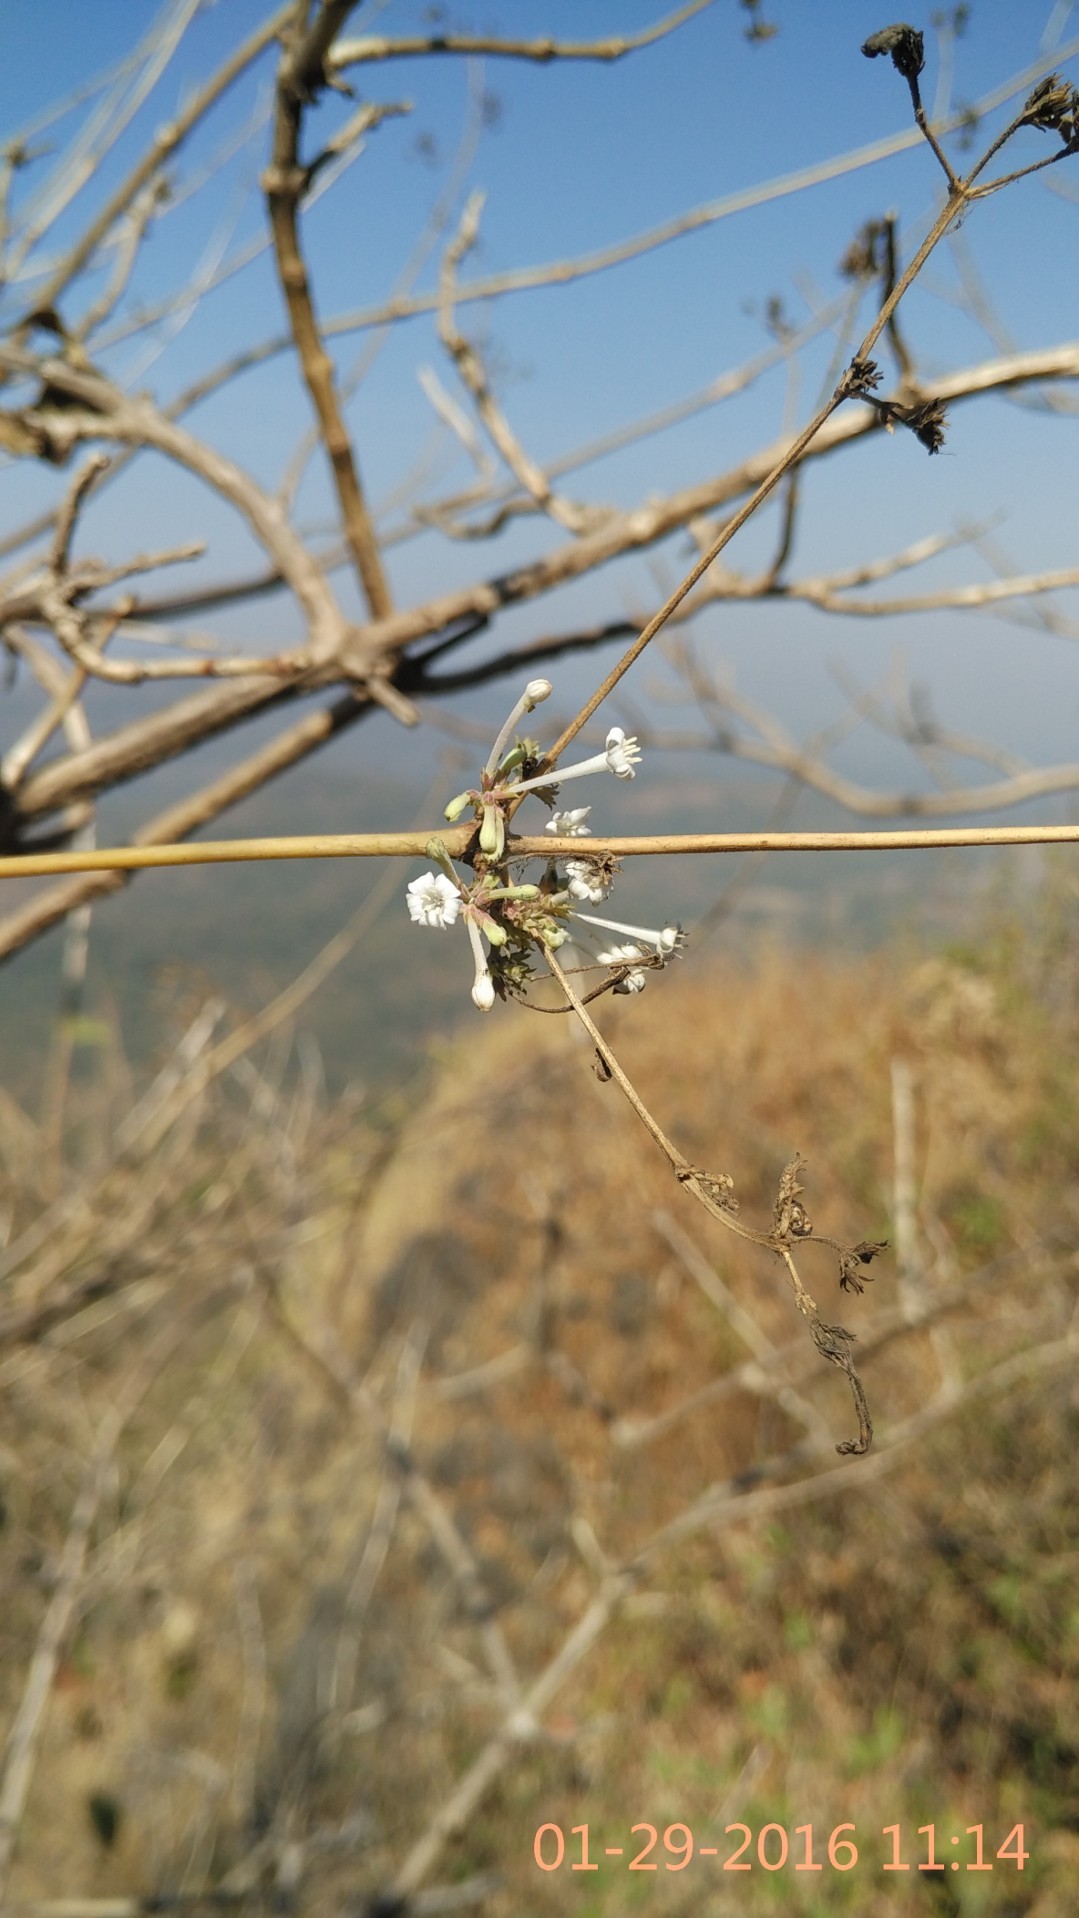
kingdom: Plantae
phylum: Tracheophyta
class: Magnoliopsida
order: Gentianales
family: Rubiaceae
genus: Spermadictyon
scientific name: Spermadictyon suaveolens
